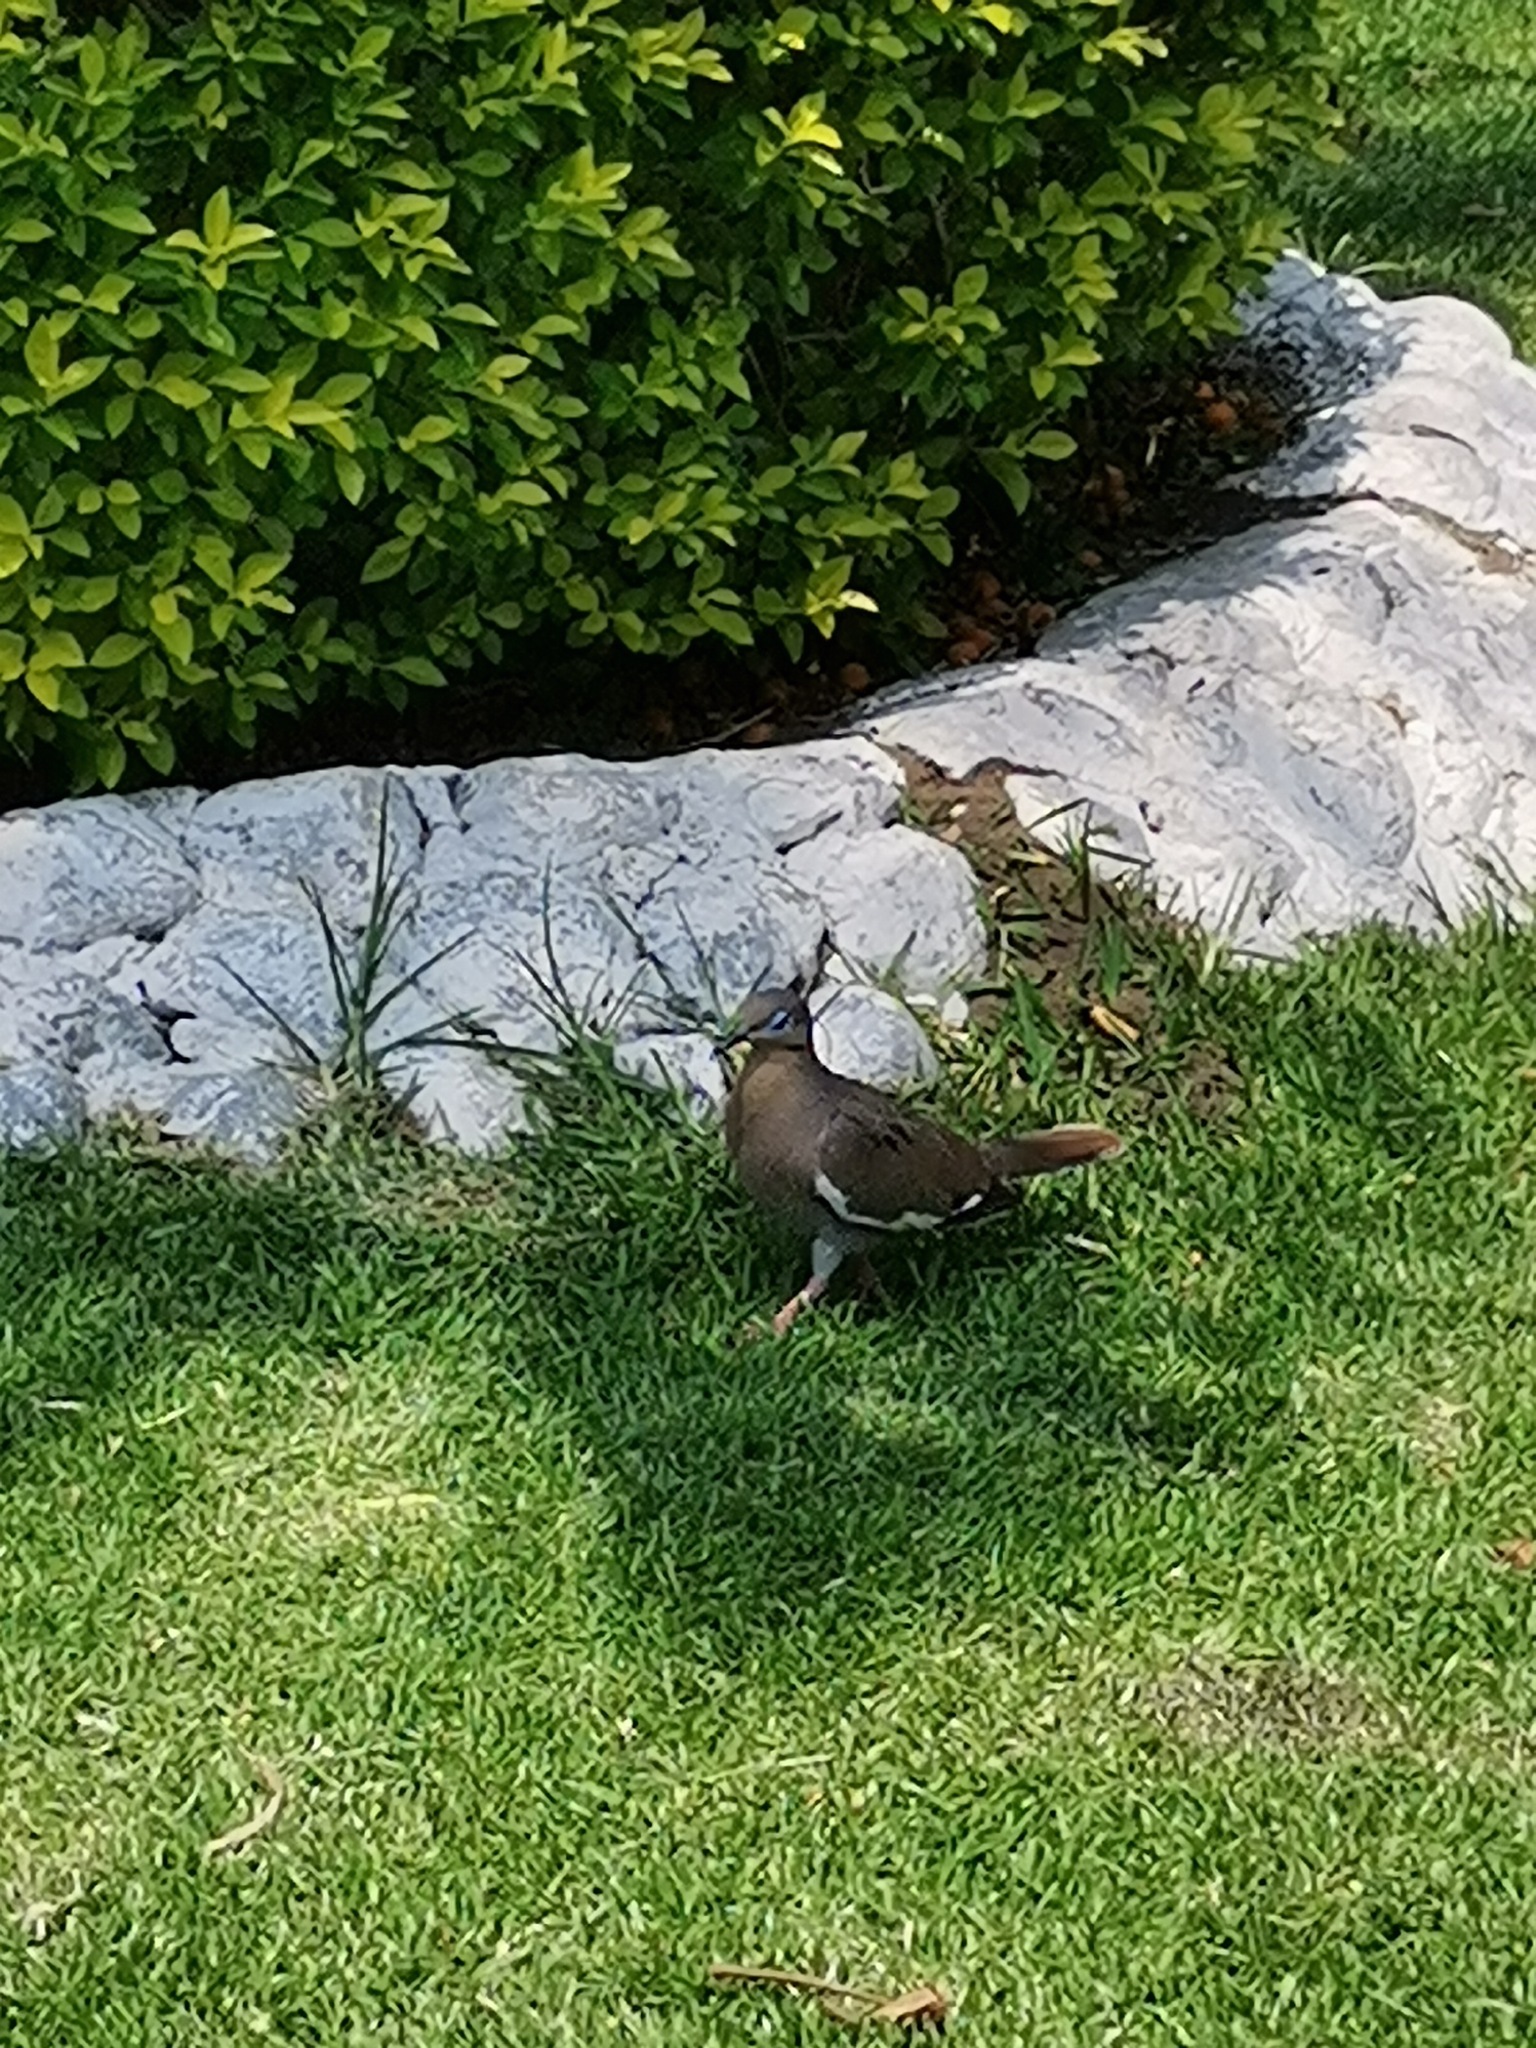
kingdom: Animalia
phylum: Chordata
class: Aves
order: Columbiformes
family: Columbidae
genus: Zenaida
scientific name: Zenaida asiatica
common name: White-winged dove
